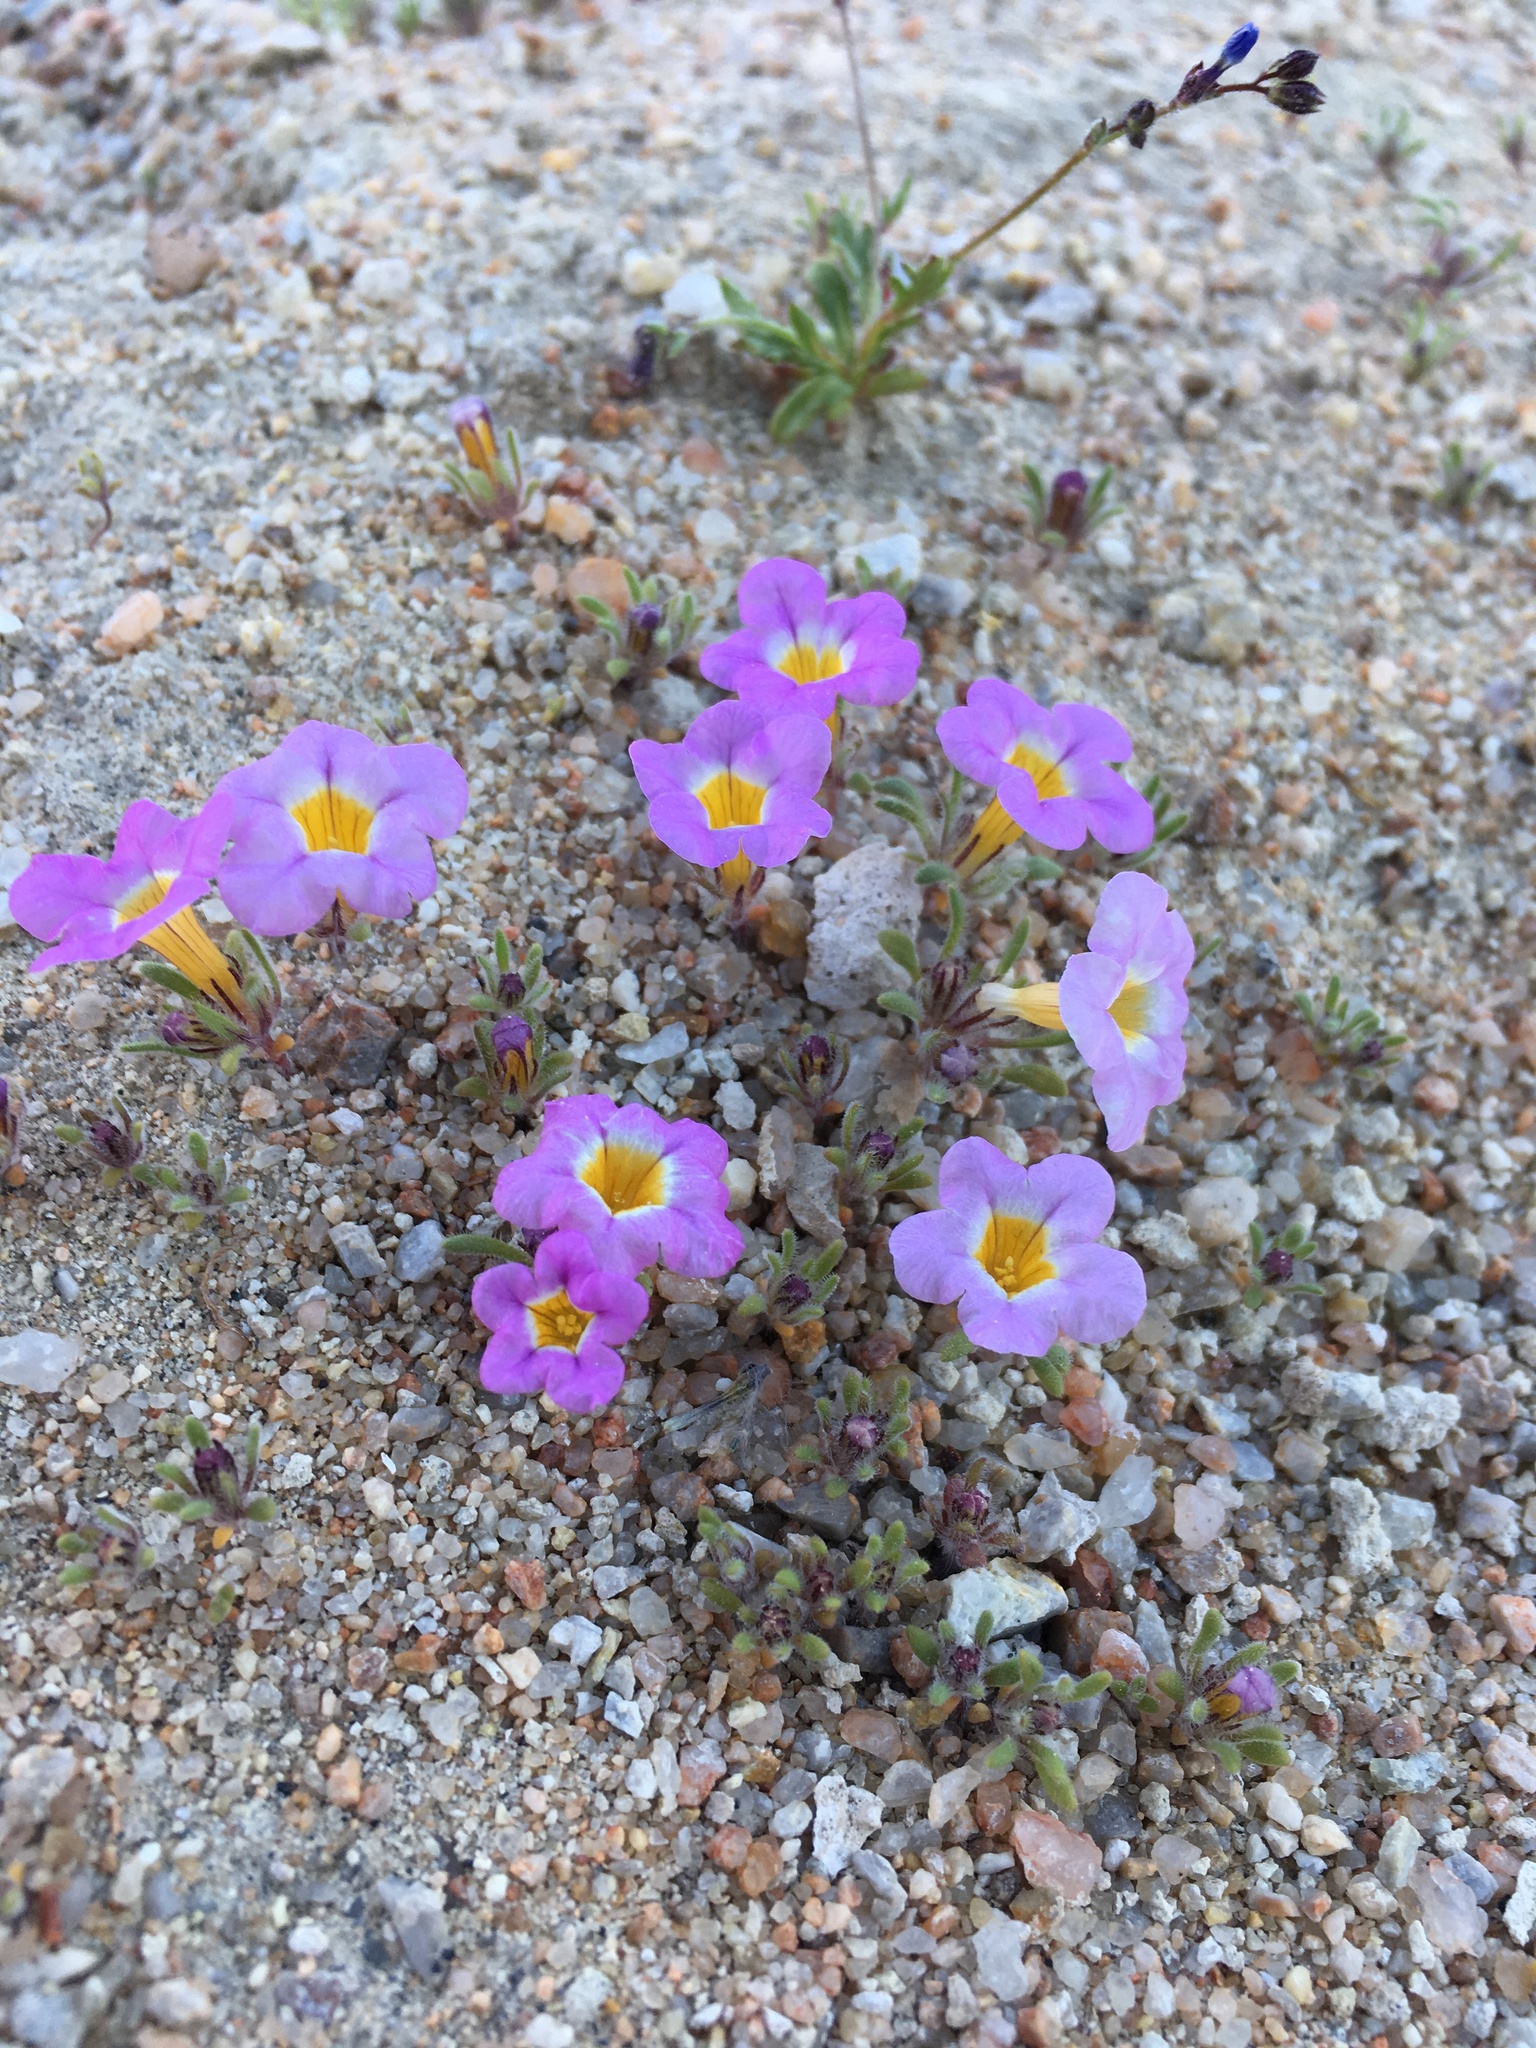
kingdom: Plantae
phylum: Tracheophyta
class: Magnoliopsida
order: Boraginales
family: Namaceae
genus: Nama
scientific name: Nama aretioides
